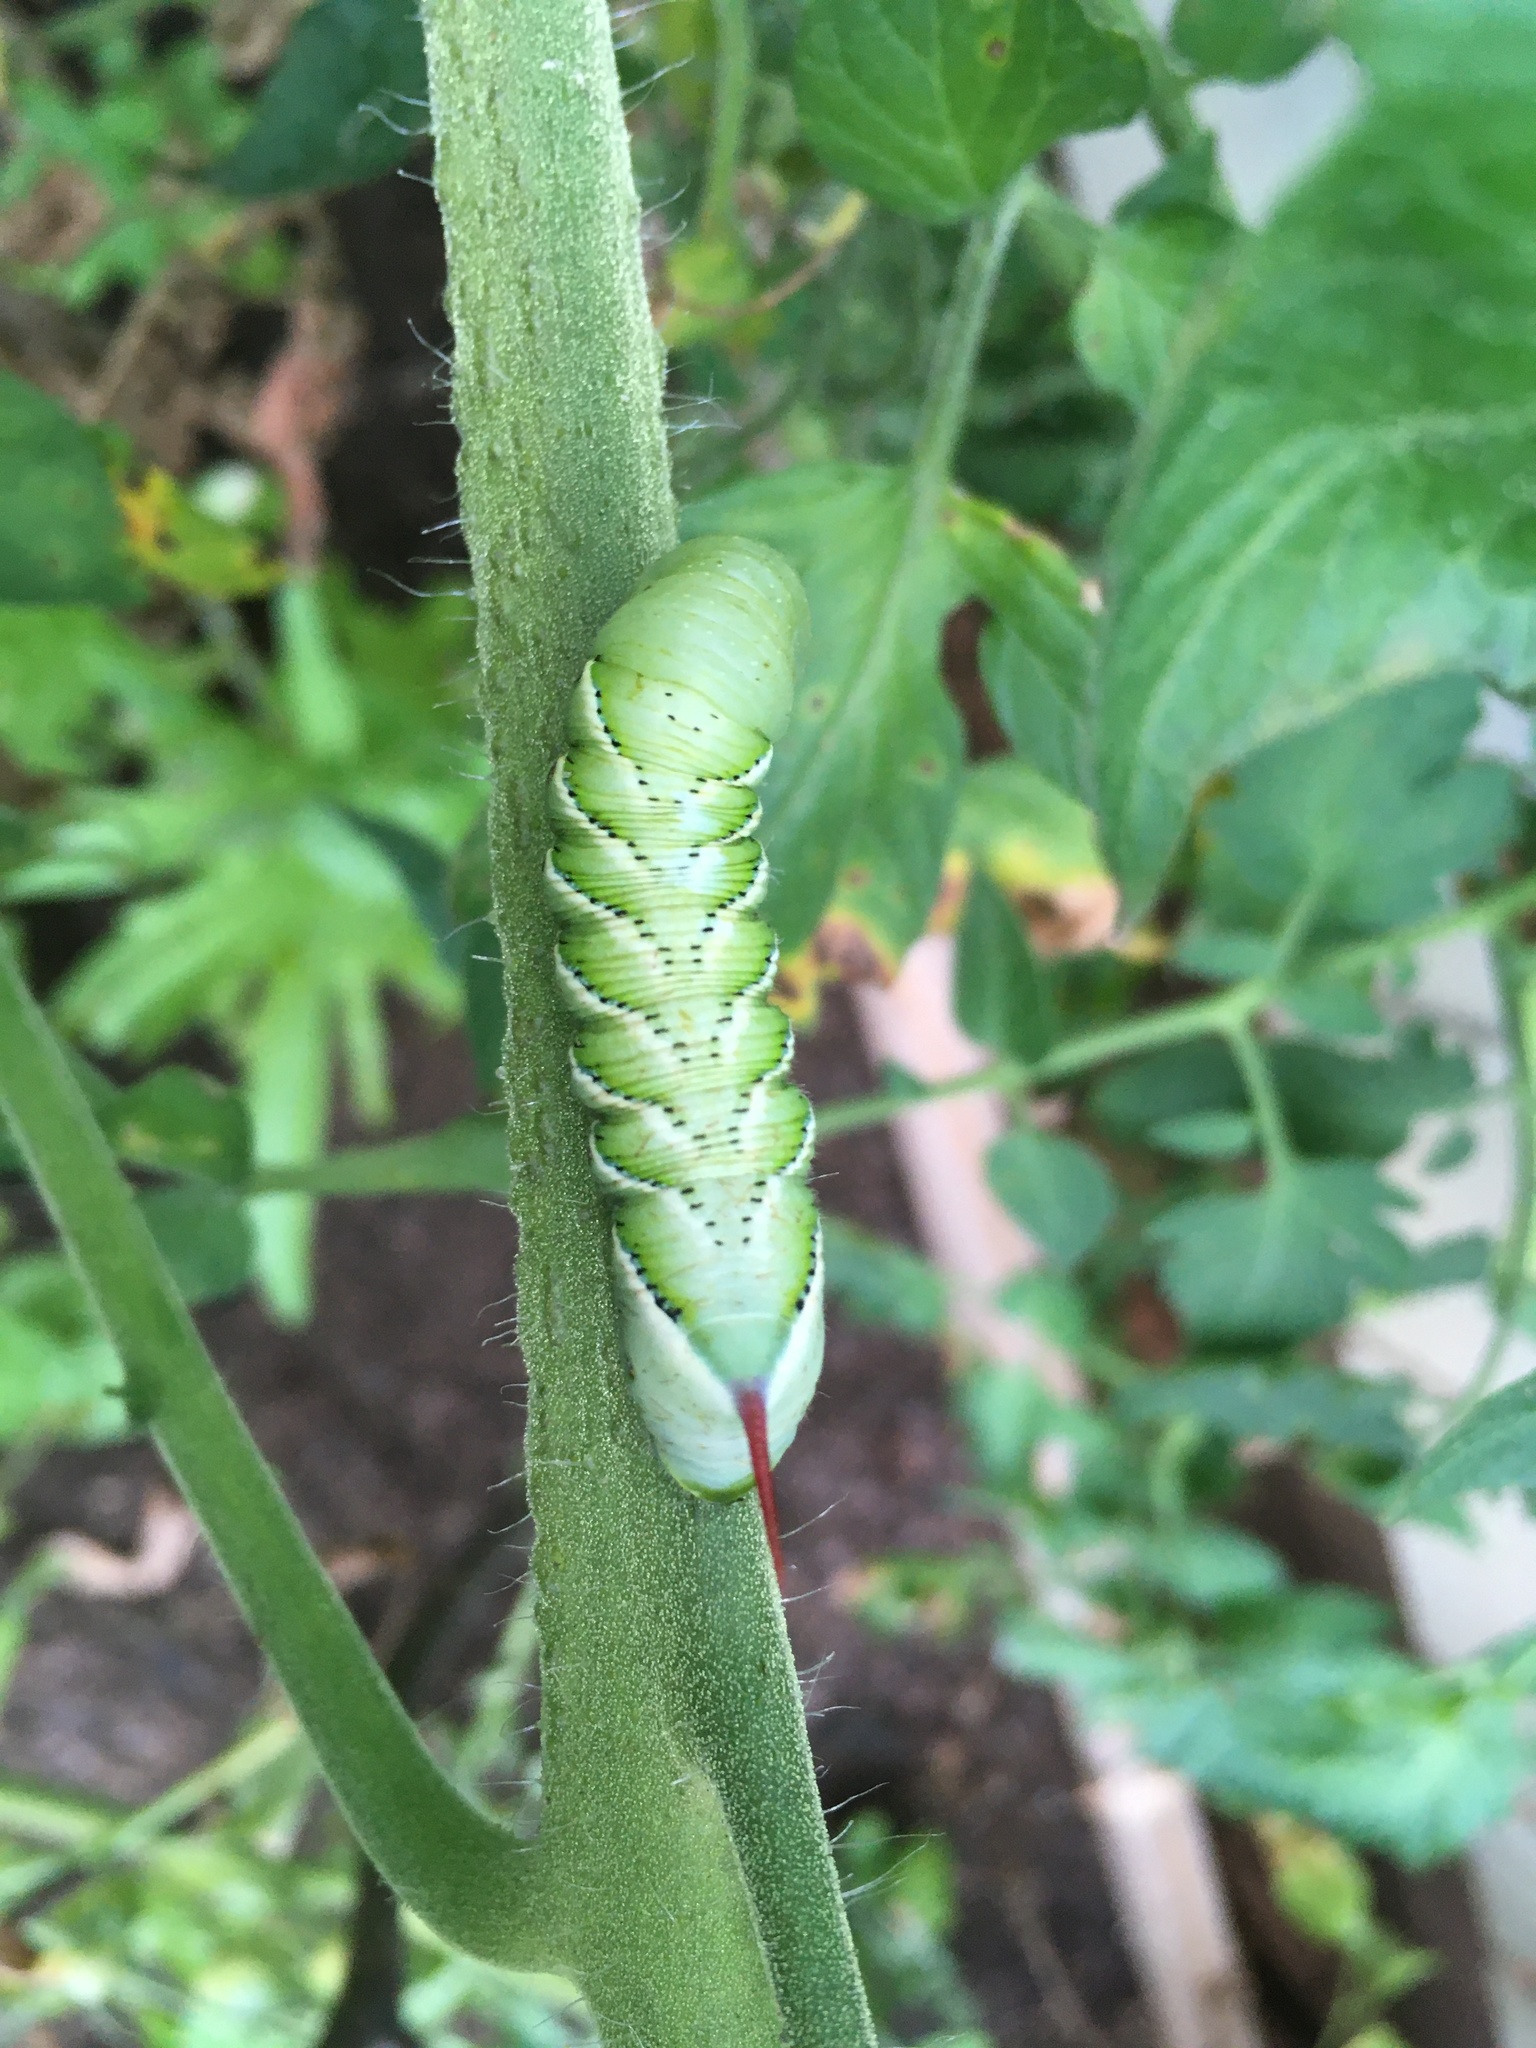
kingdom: Animalia
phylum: Arthropoda
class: Insecta
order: Lepidoptera
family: Sphingidae
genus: Manduca
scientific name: Manduca sexta
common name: Carolina sphinx
